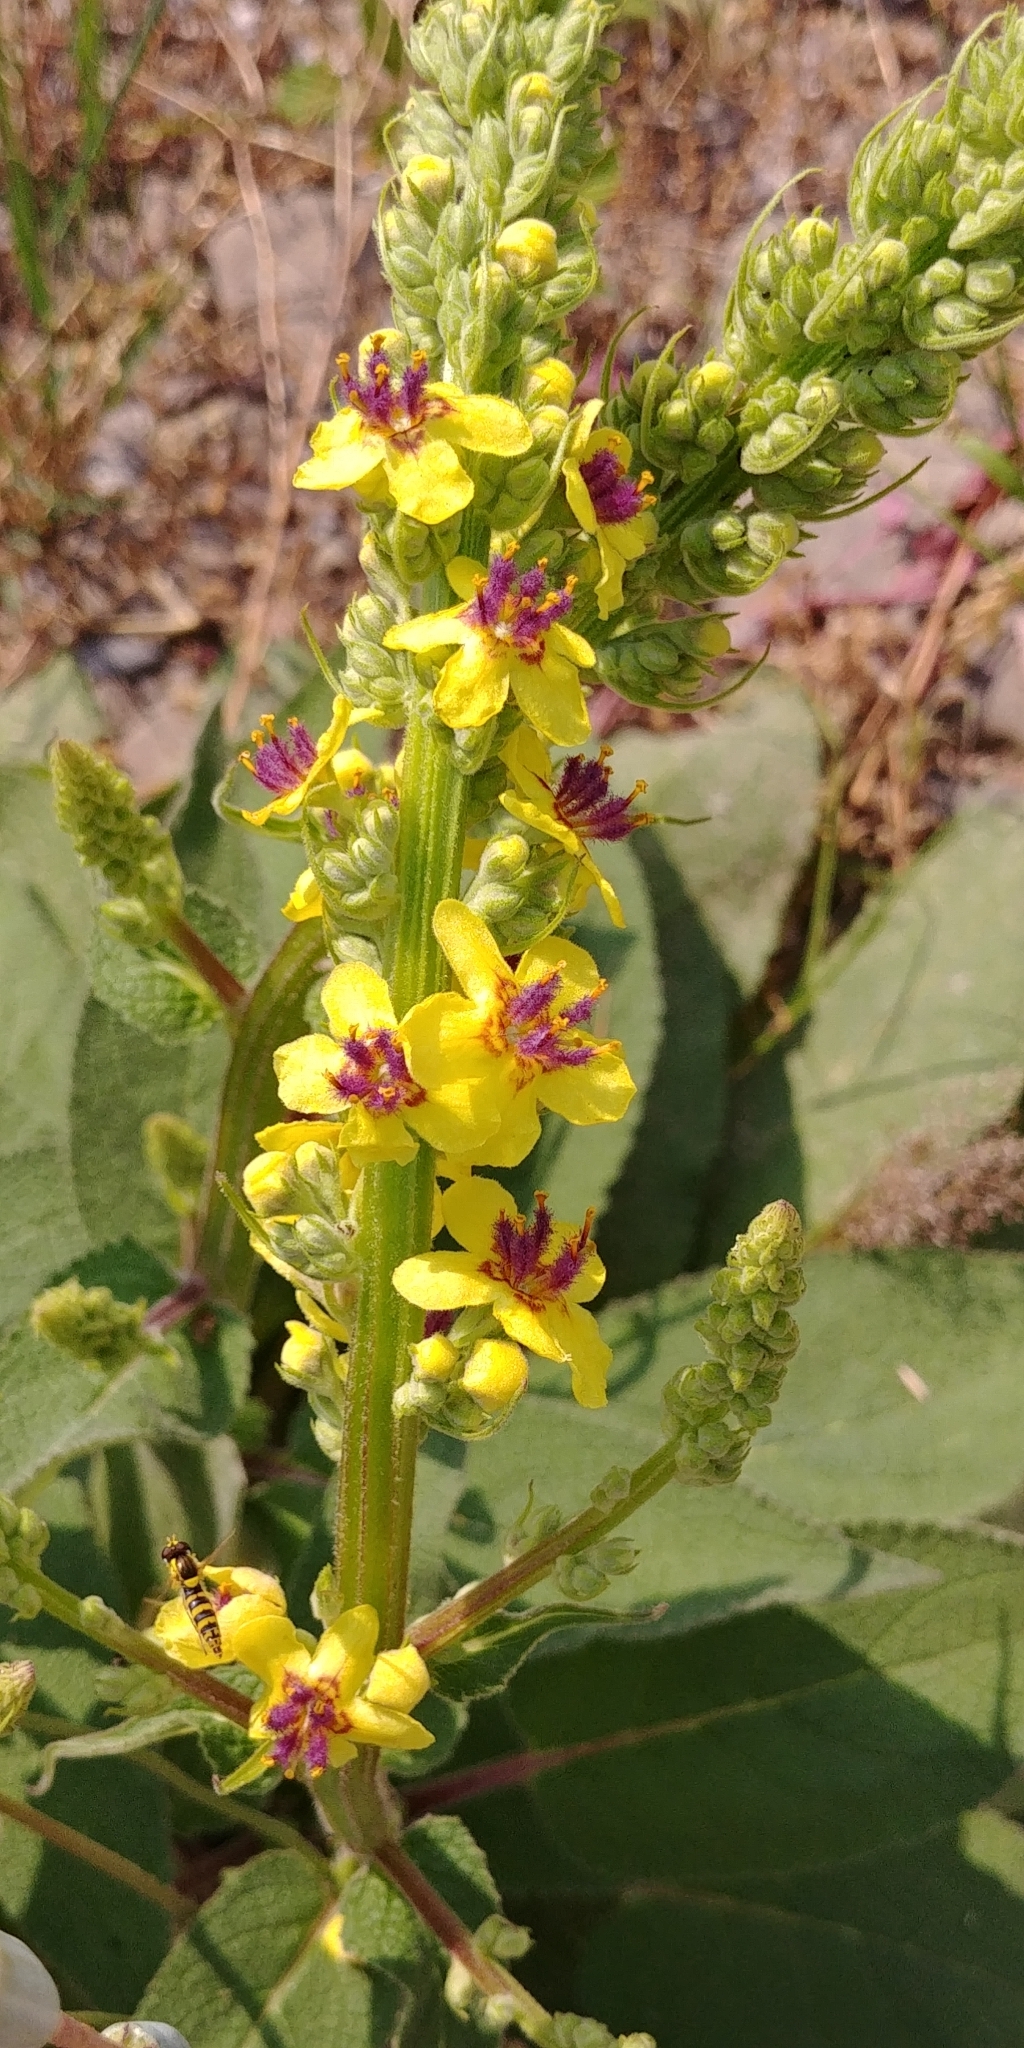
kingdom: Plantae
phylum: Tracheophyta
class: Magnoliopsida
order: Lamiales
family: Scrophulariaceae
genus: Verbascum
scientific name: Verbascum nigrum
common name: Dark mullein
